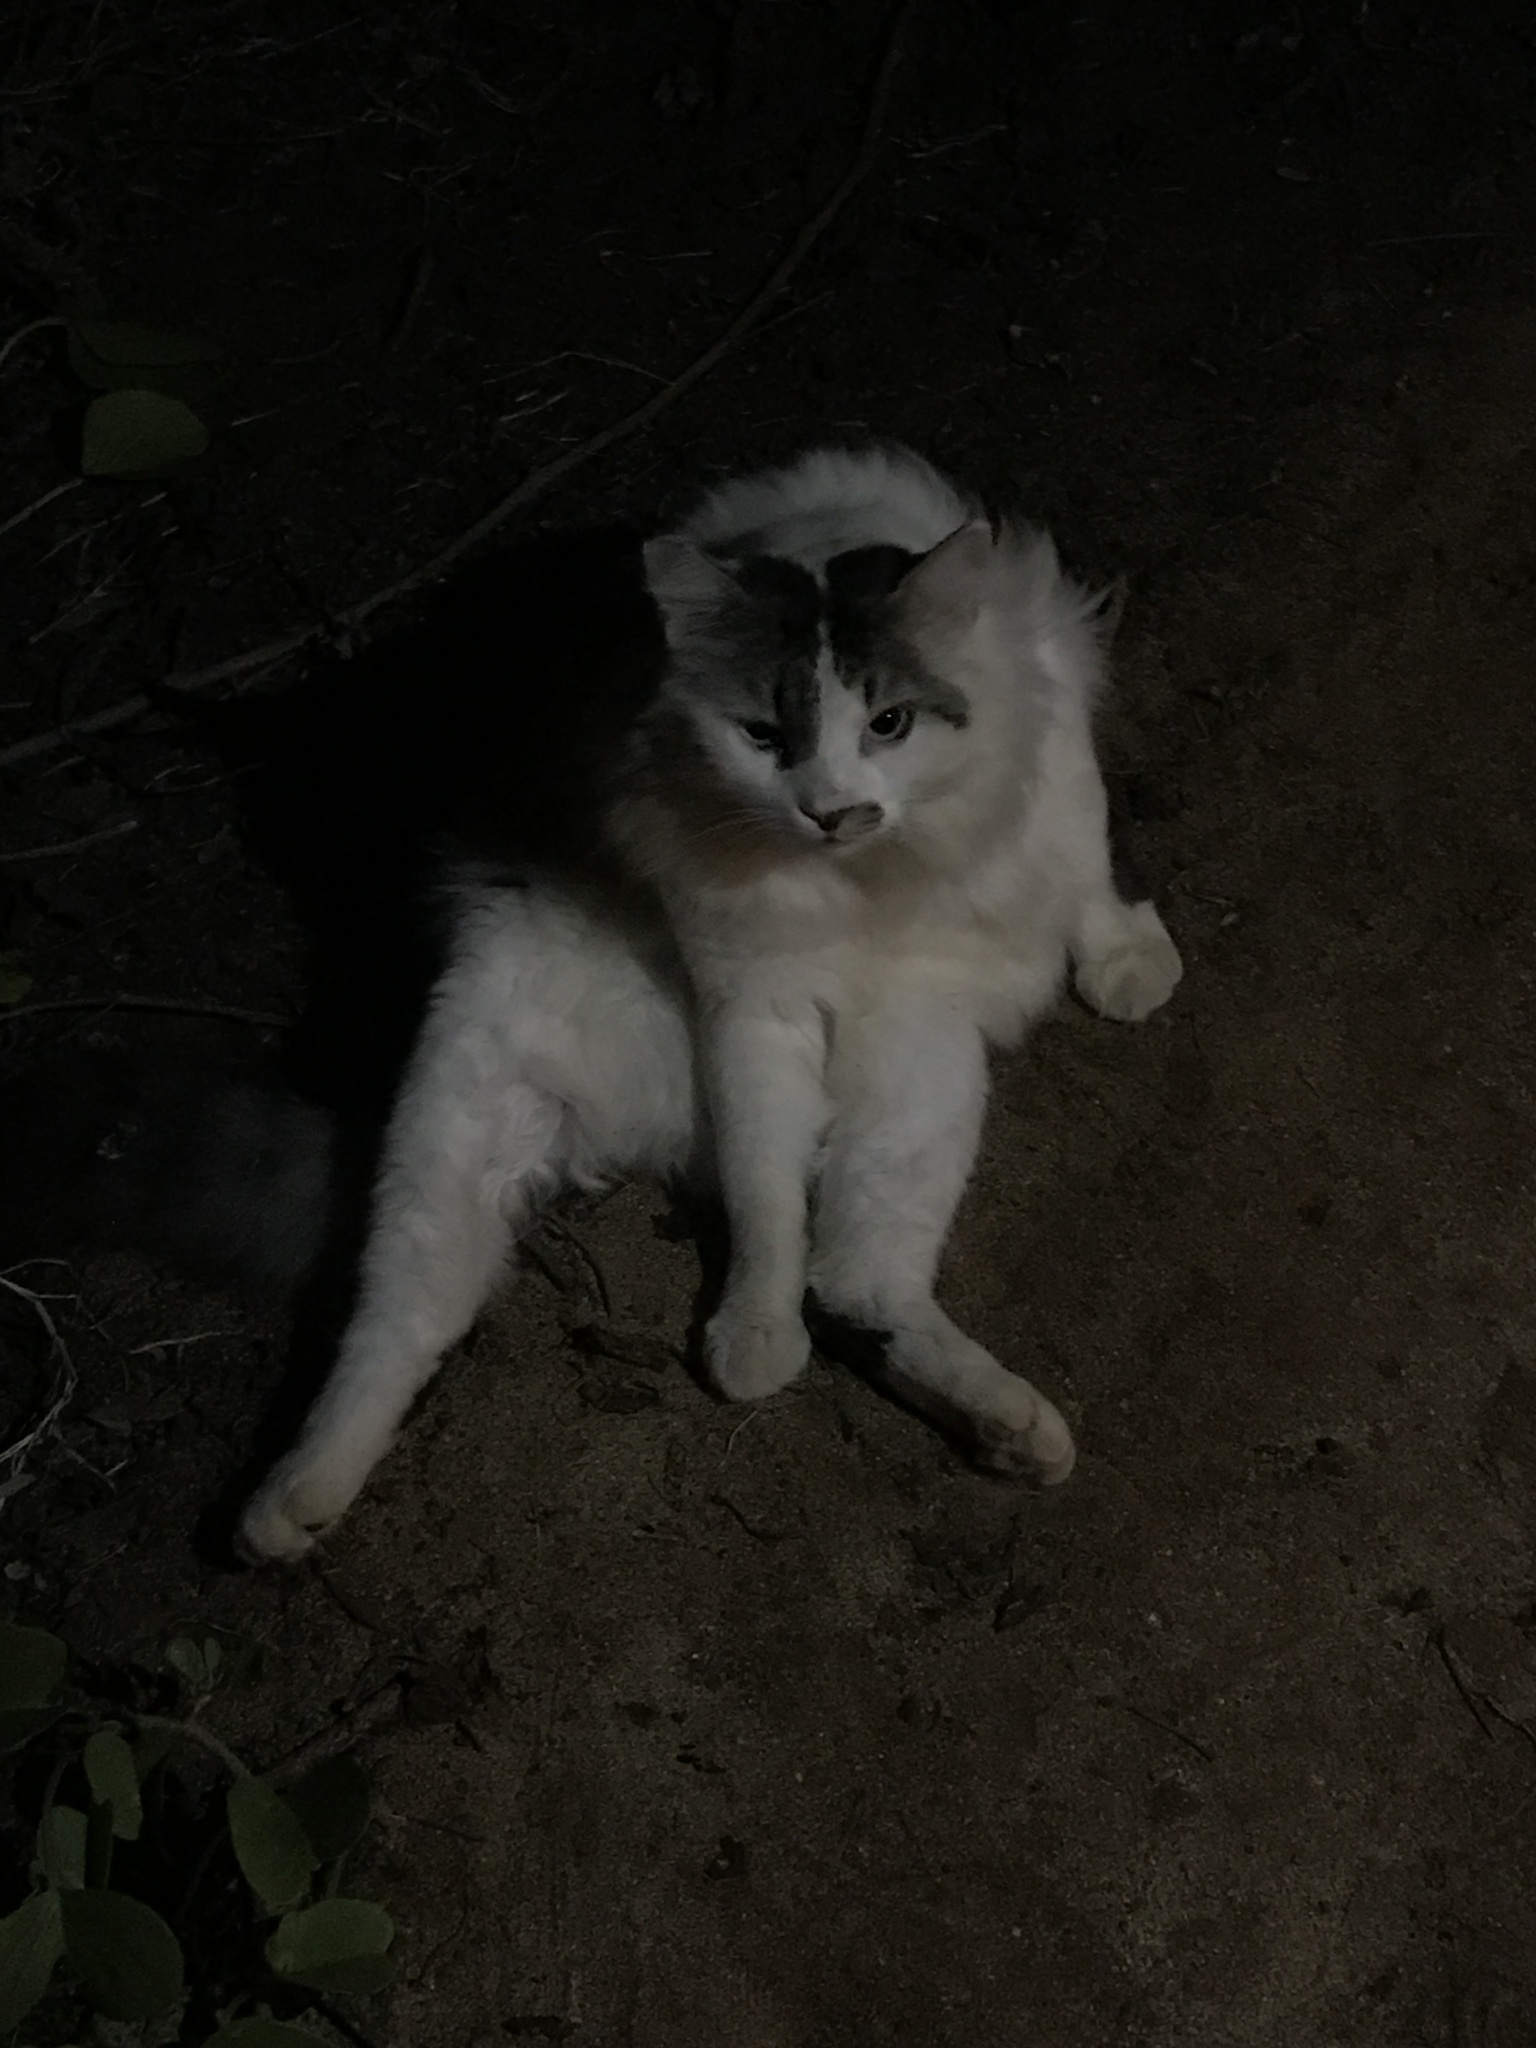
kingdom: Animalia
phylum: Chordata
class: Mammalia
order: Carnivora
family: Felidae
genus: Felis
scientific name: Felis catus
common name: Domestic cat
